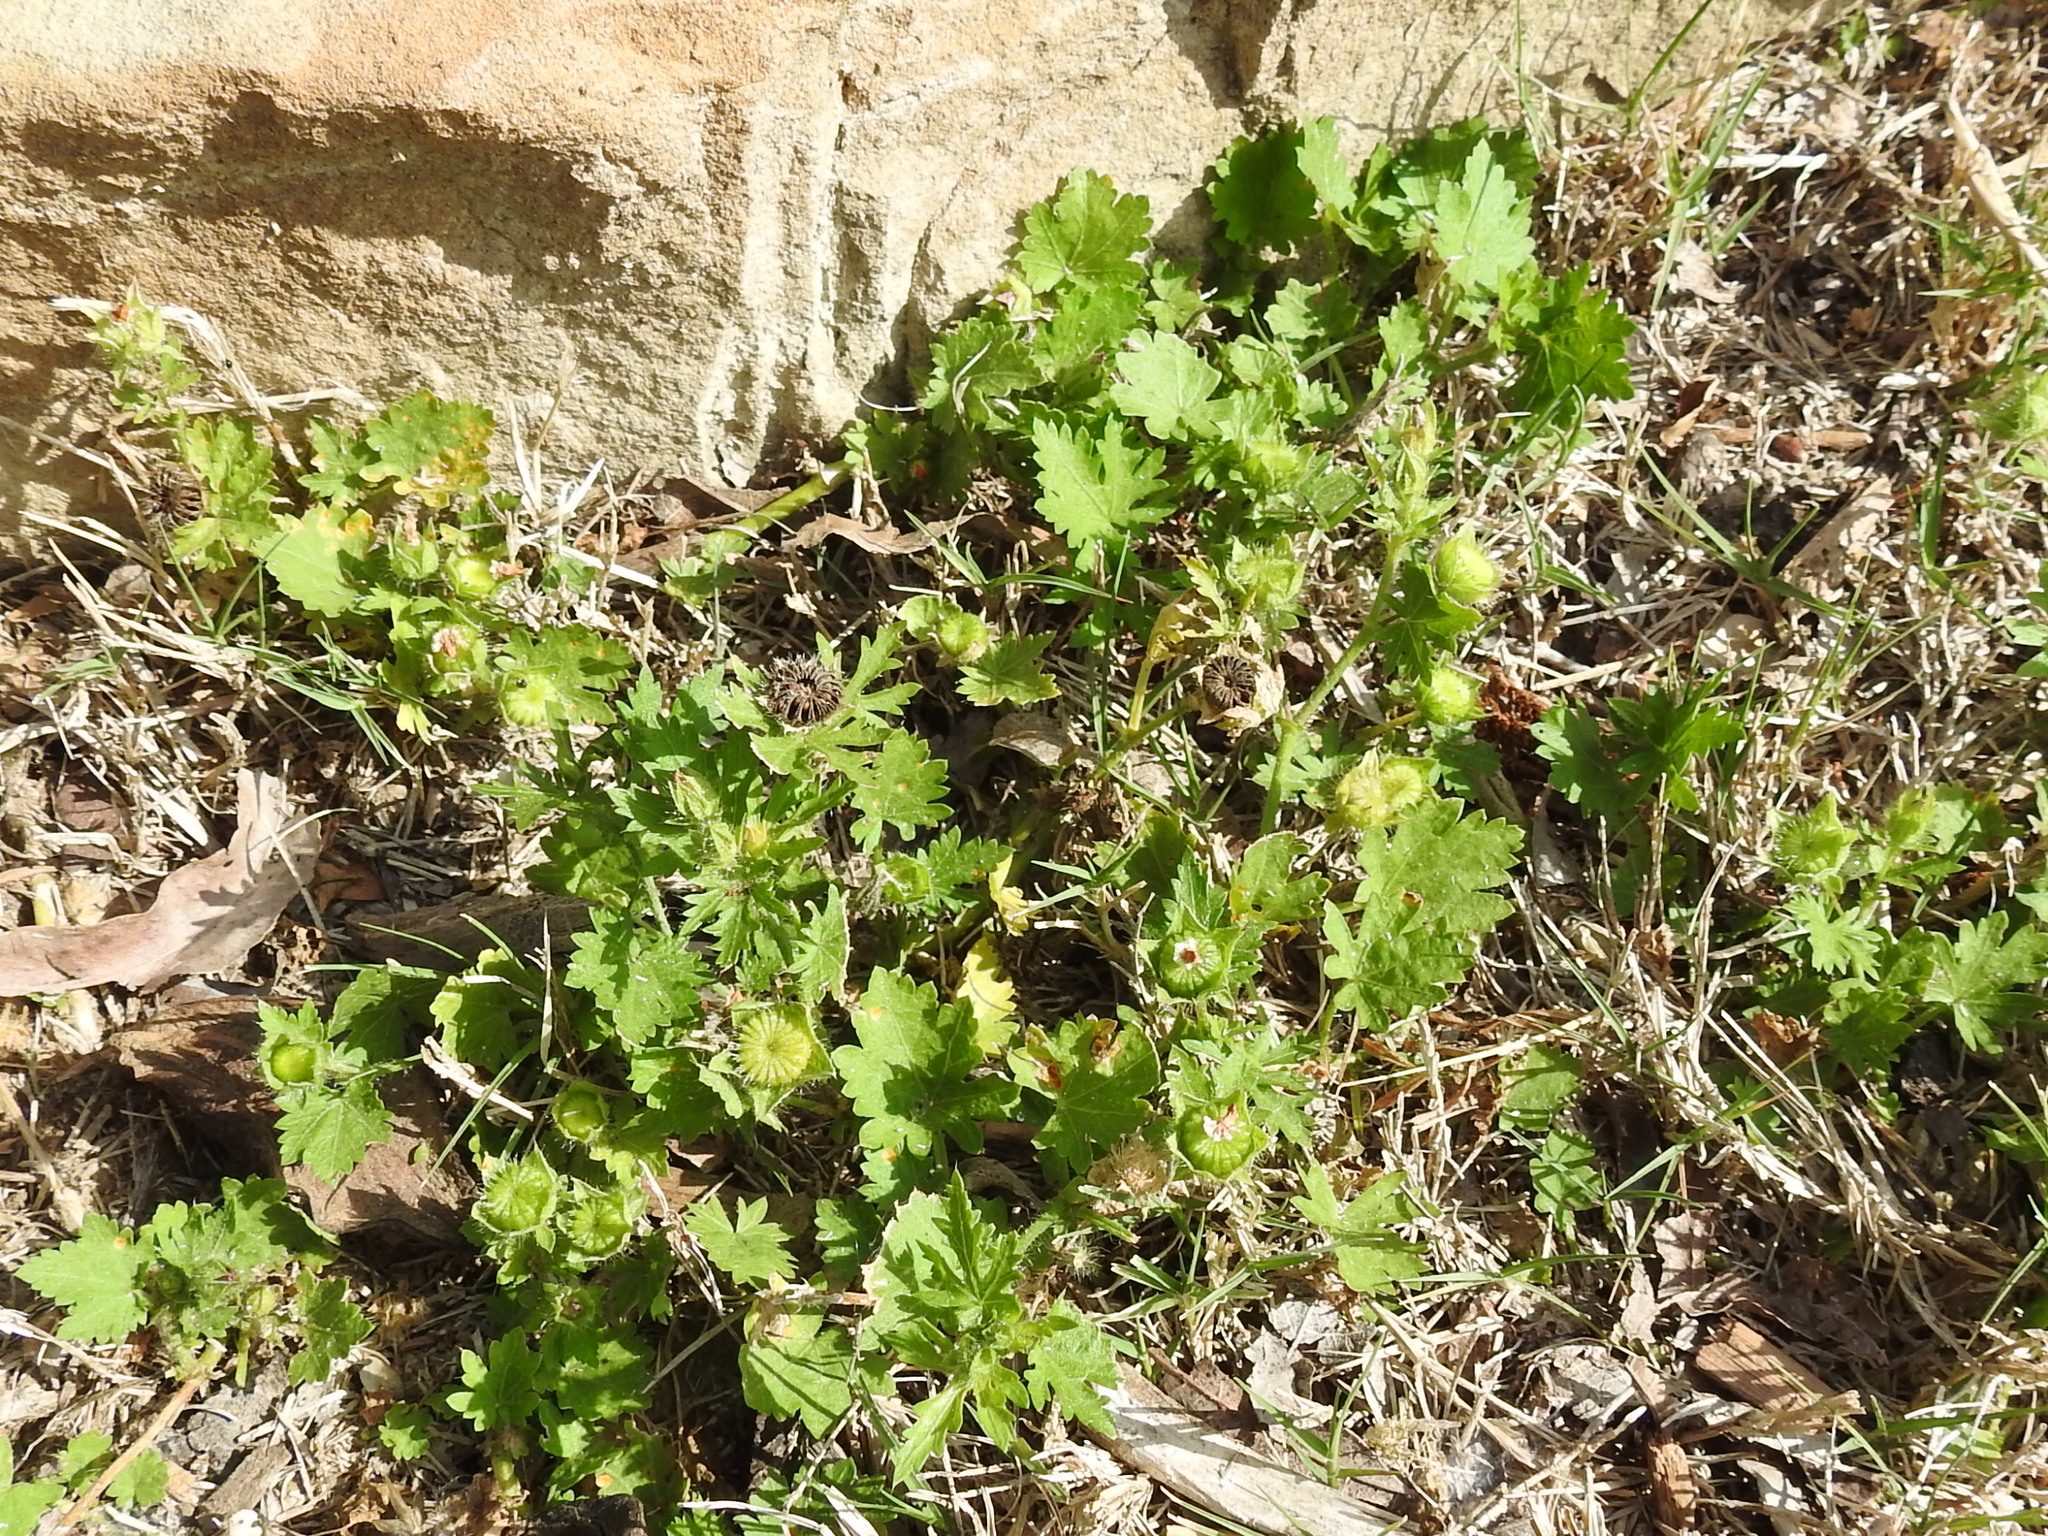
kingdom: Plantae
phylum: Tracheophyta
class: Magnoliopsida
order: Malvales
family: Malvaceae
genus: Modiola
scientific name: Modiola caroliniana
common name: Carolina bristlemallow
